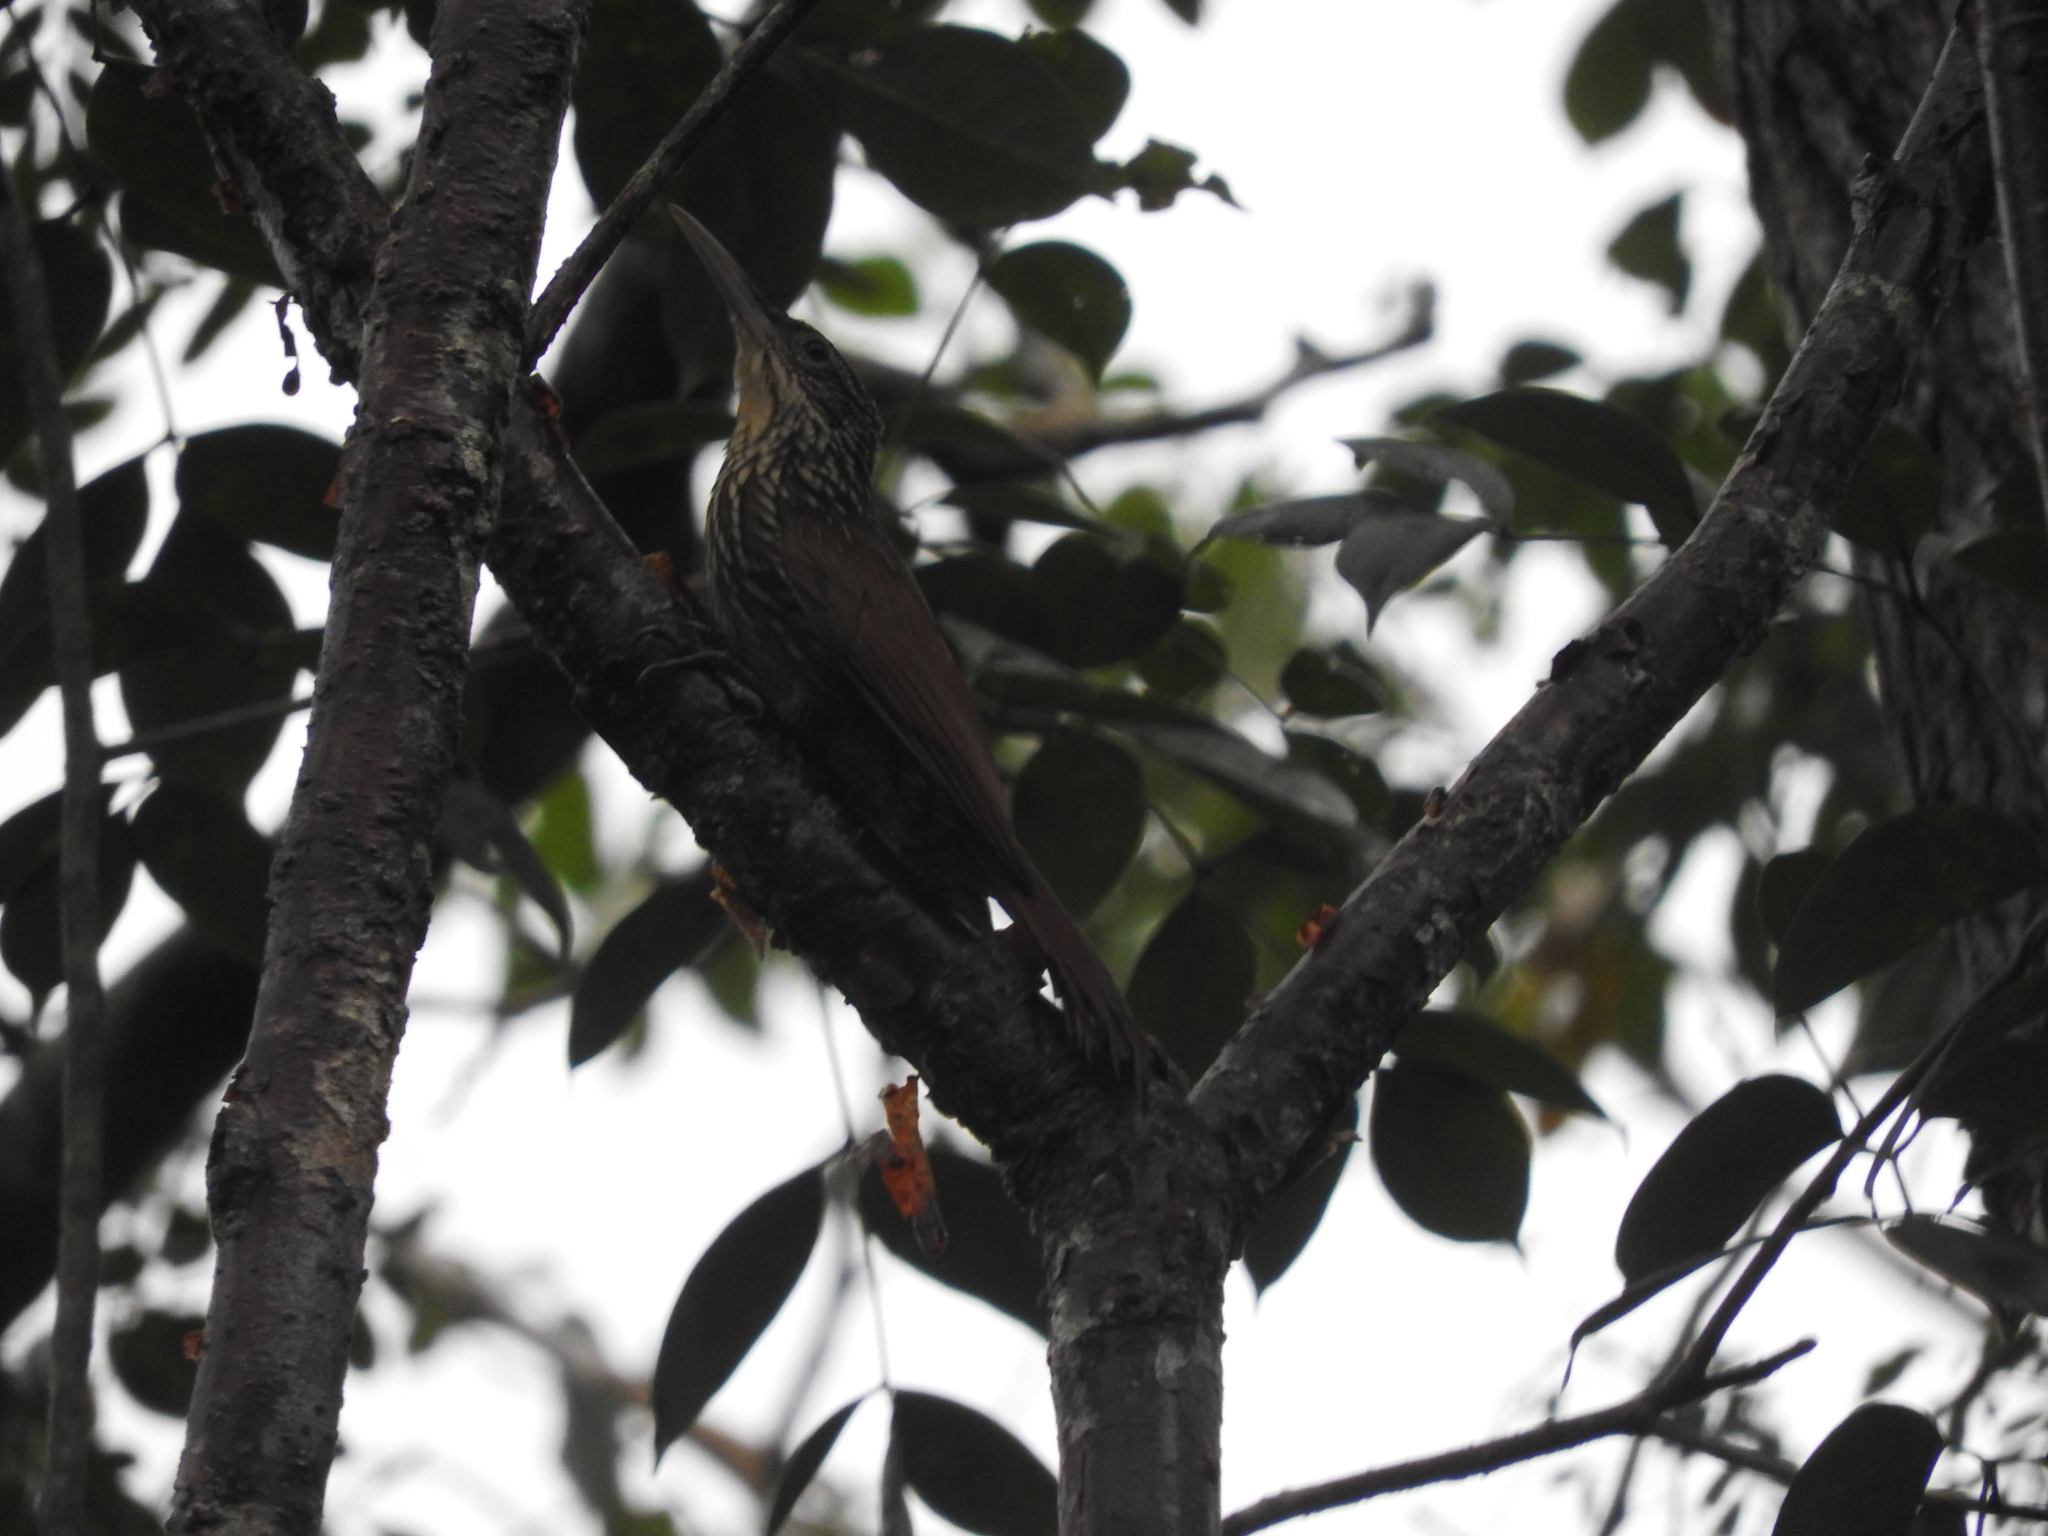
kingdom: Animalia
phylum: Chordata
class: Aves
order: Passeriformes
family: Furnariidae
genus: Xiphorhynchus
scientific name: Xiphorhynchus flavigaster
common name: Ivory-billed woodcreeper
